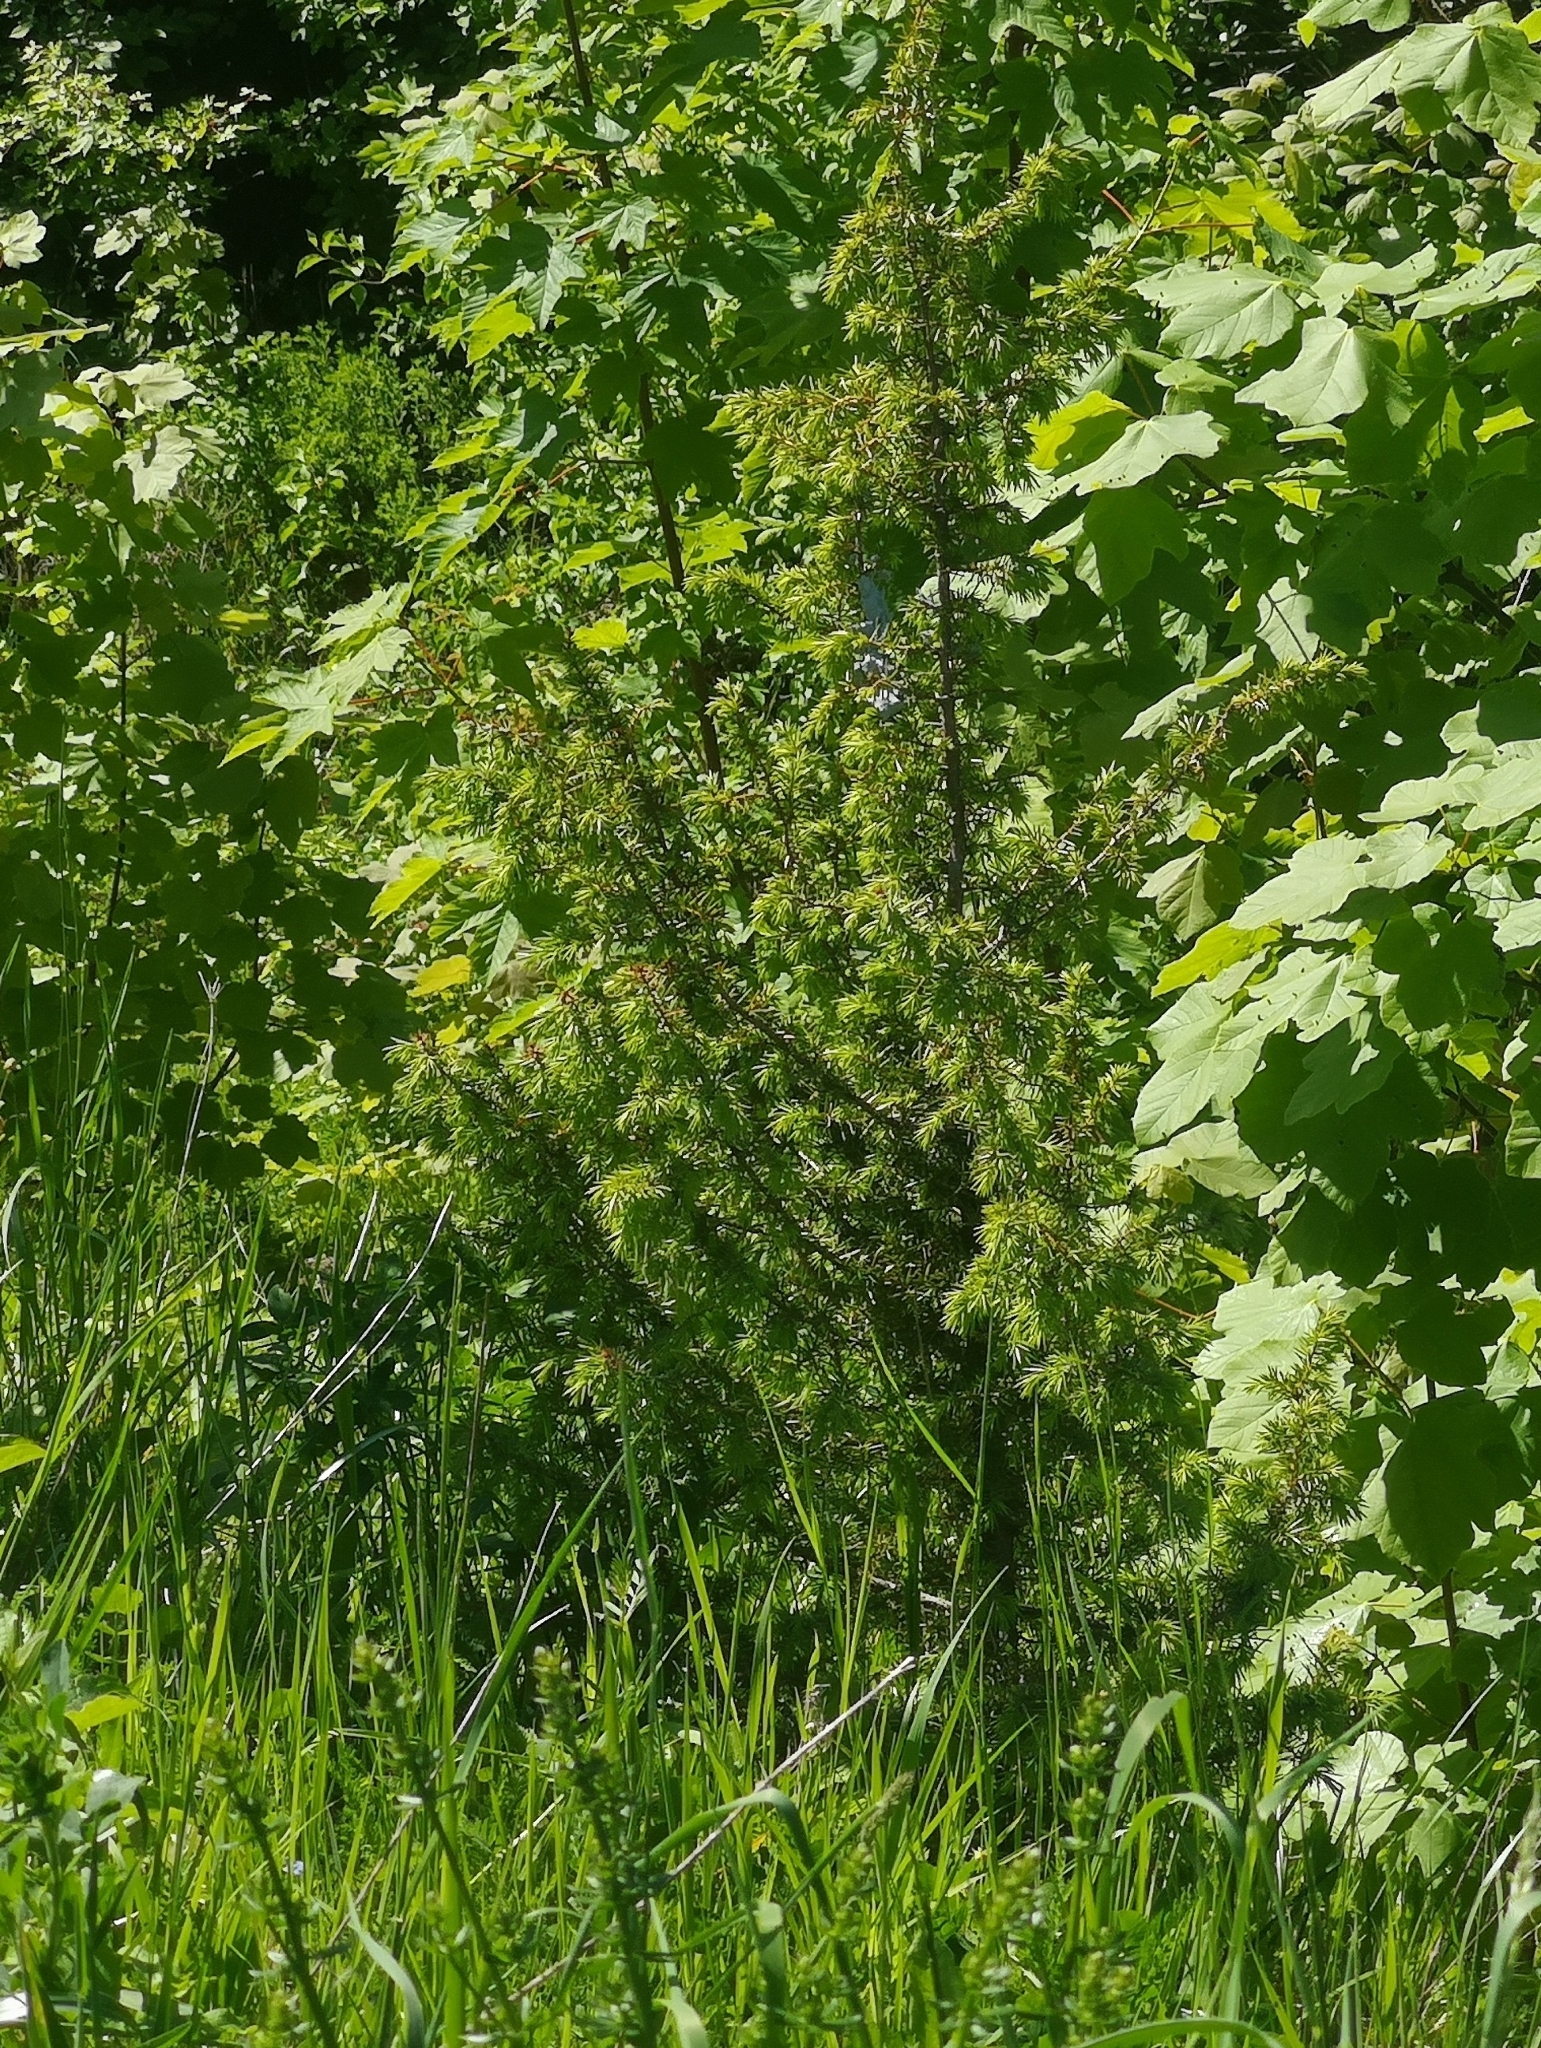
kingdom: Plantae
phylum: Tracheophyta
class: Pinopsida
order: Pinales
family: Cupressaceae
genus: Juniperus
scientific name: Juniperus communis
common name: Common juniper
